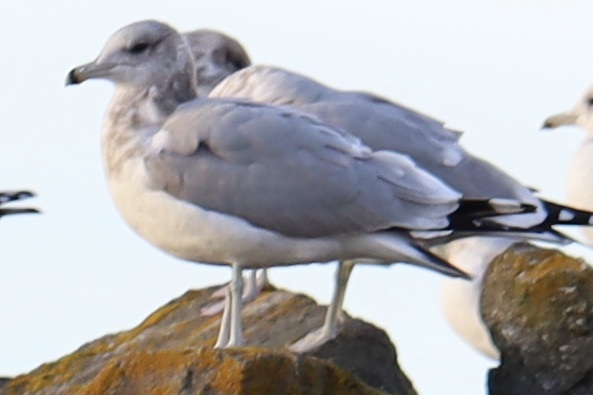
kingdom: Animalia
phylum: Chordata
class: Aves
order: Charadriiformes
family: Laridae
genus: Larus
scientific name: Larus californicus
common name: California gull
